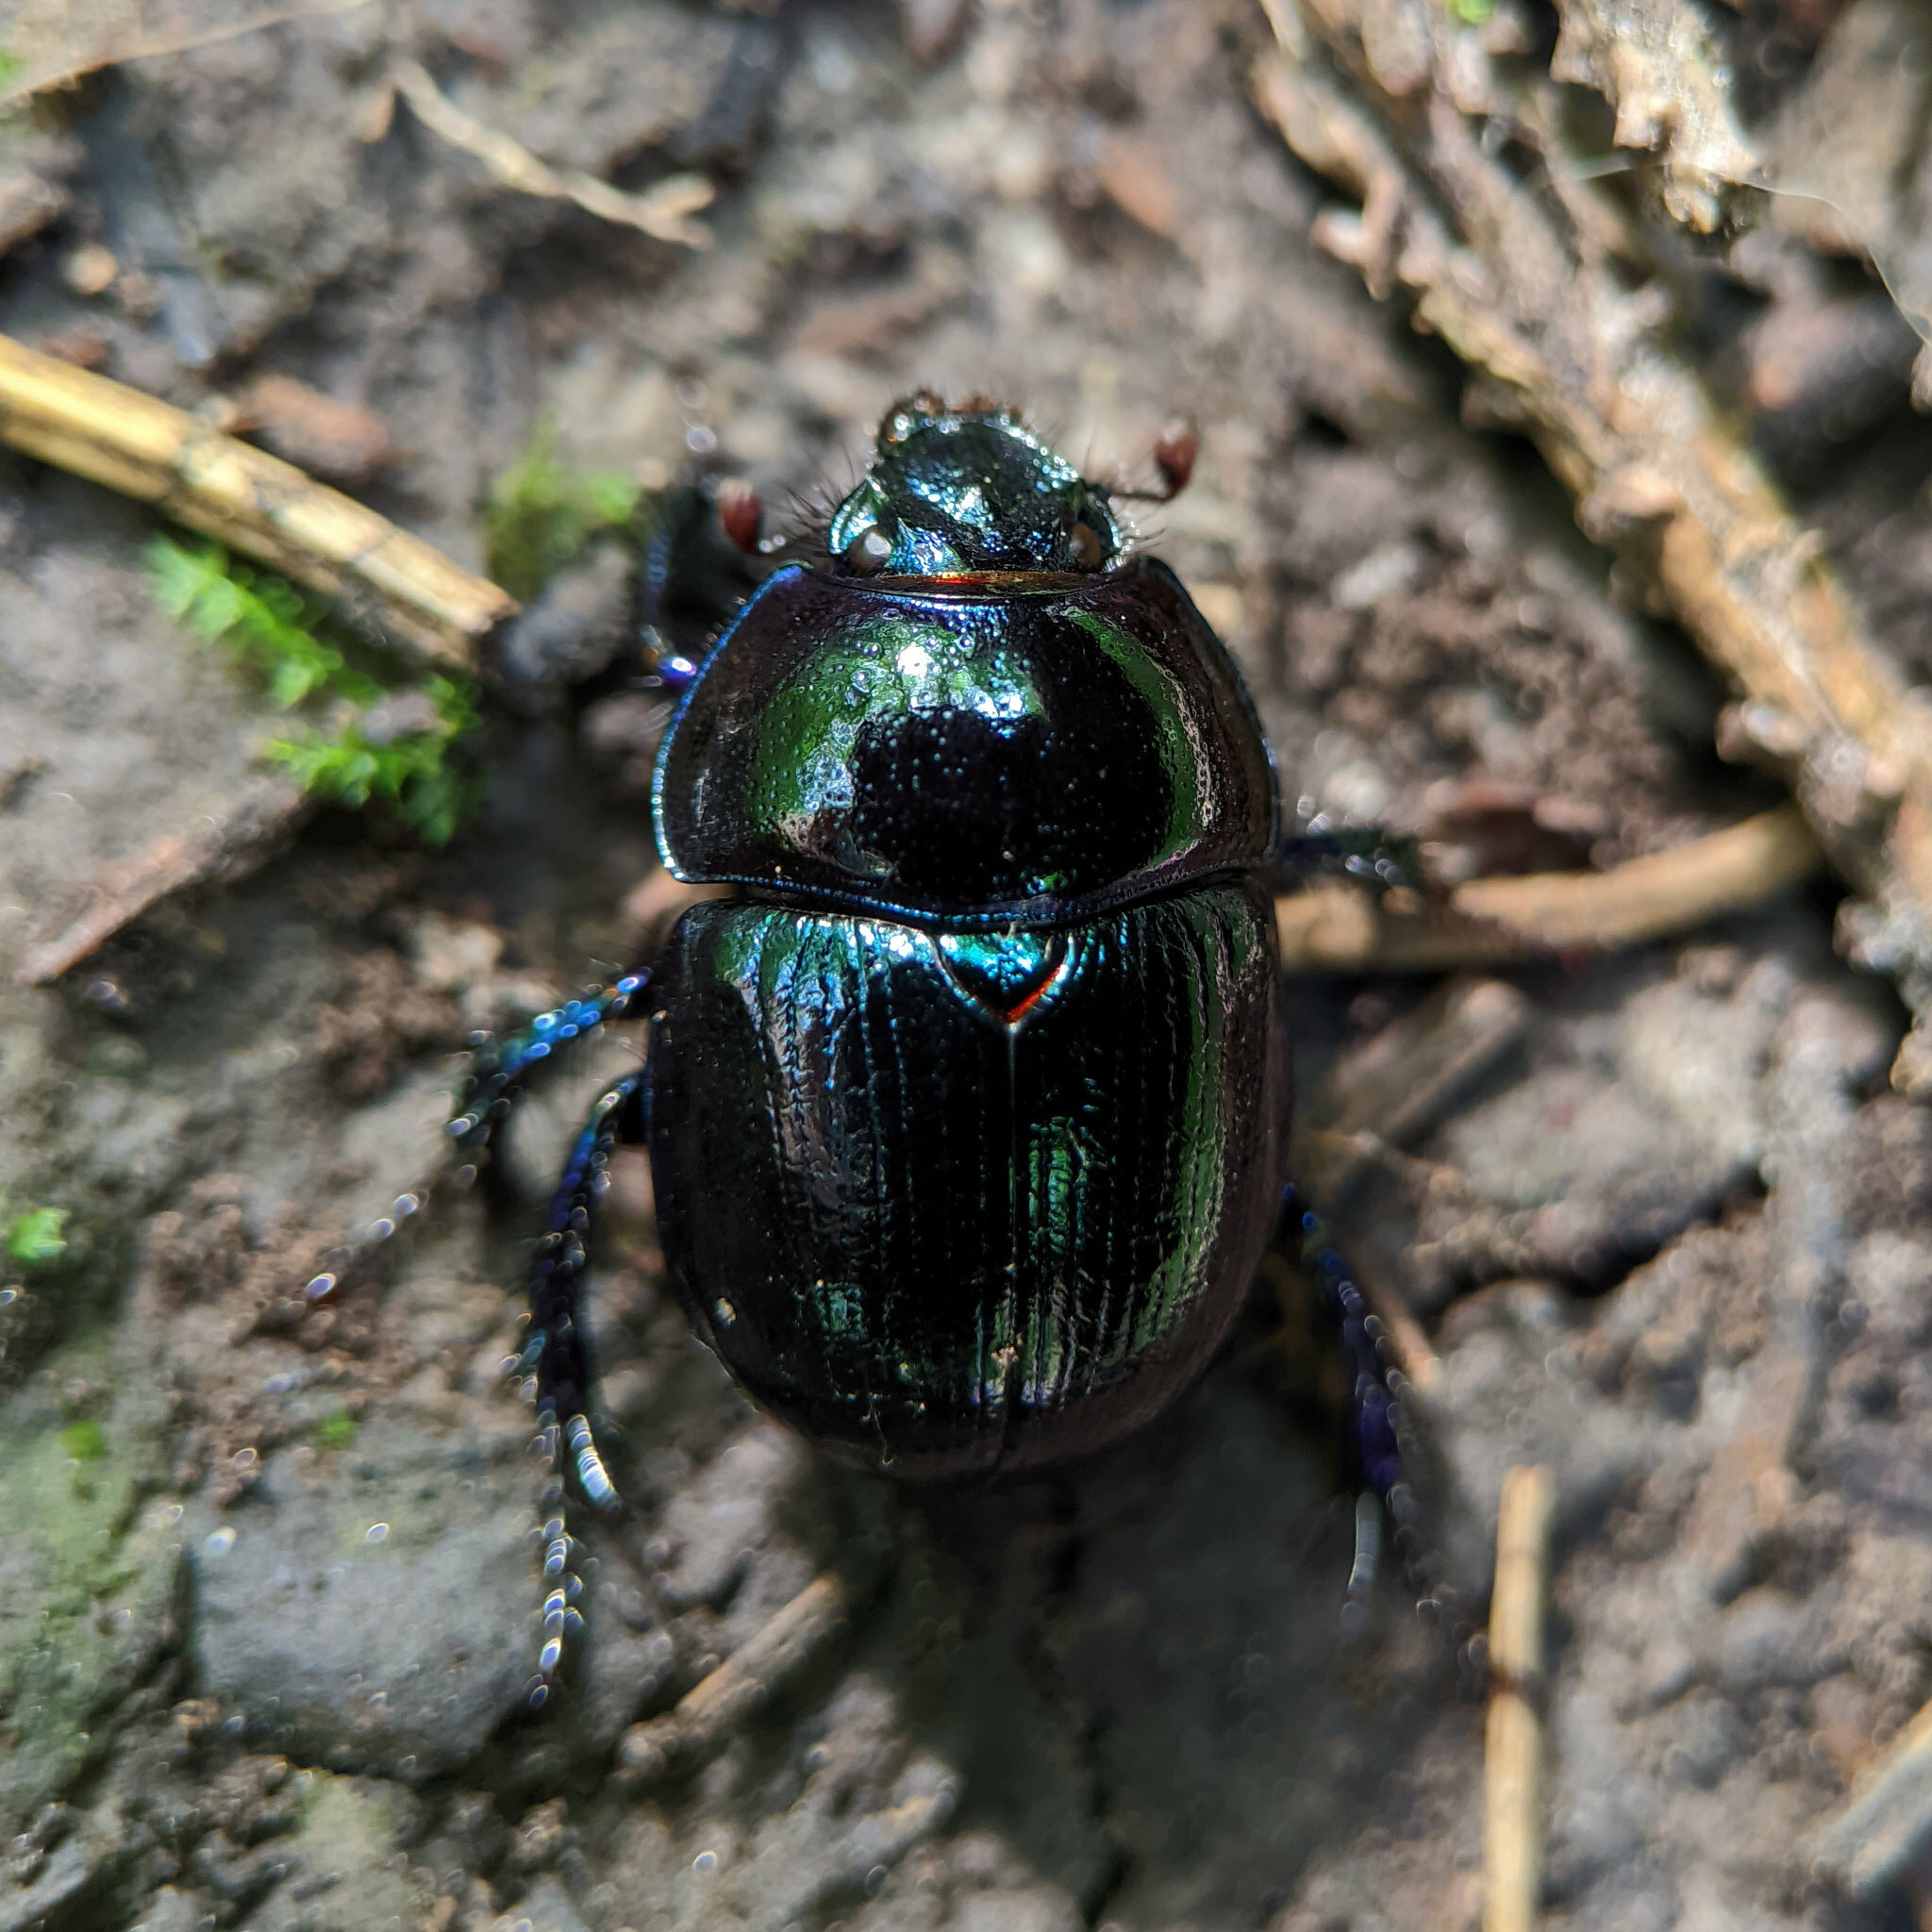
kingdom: Animalia
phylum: Arthropoda
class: Insecta
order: Coleoptera
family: Geotrupidae
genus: Anoplotrupes
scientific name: Anoplotrupes stercorosus
